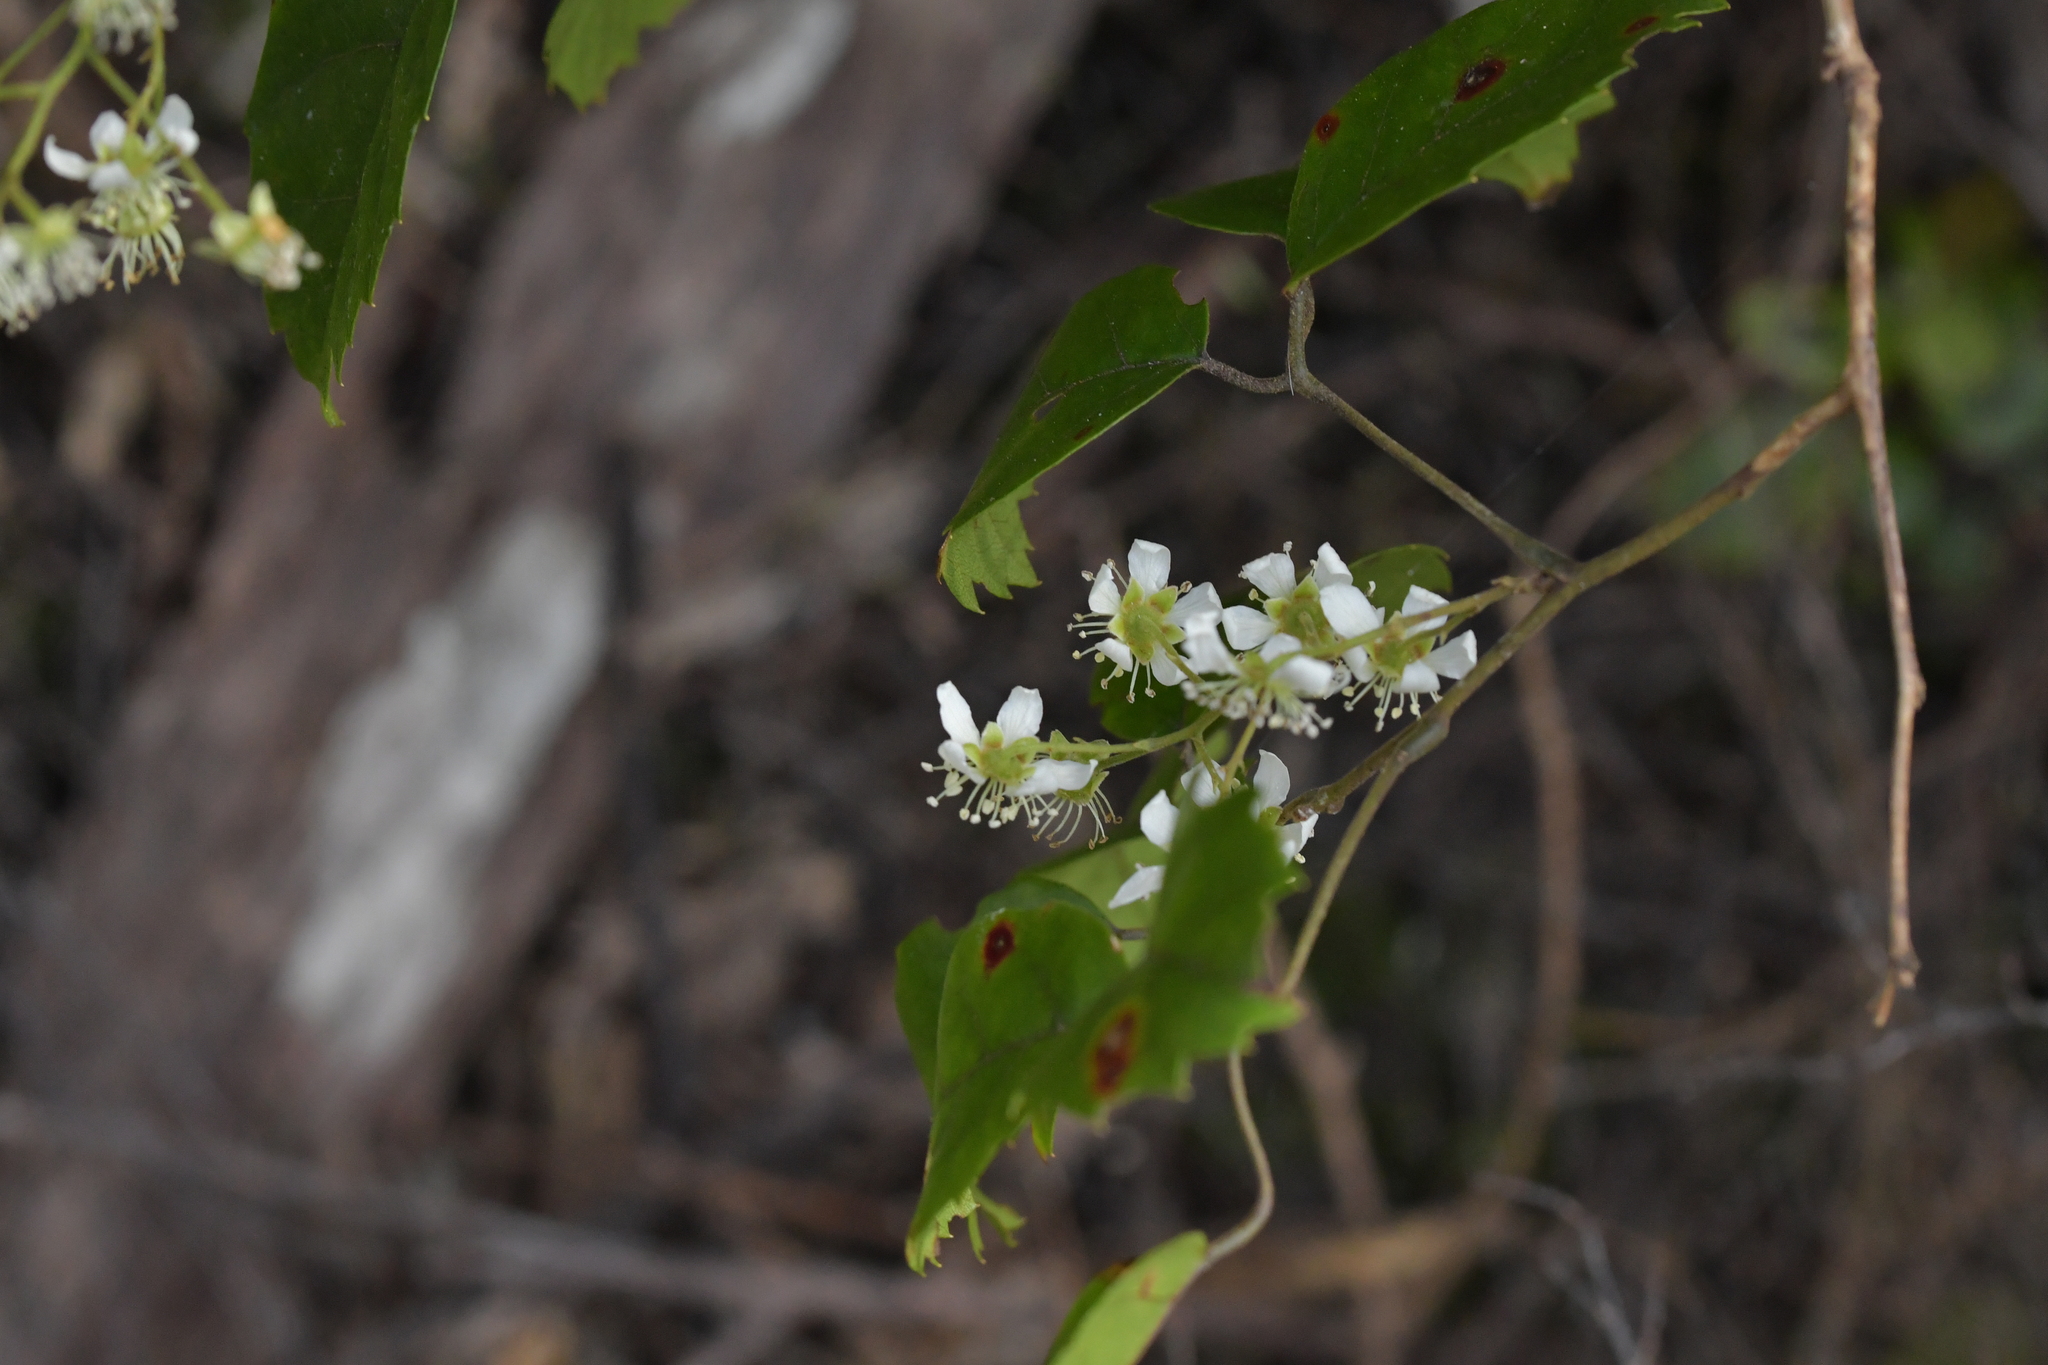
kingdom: Plantae
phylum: Tracheophyta
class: Magnoliopsida
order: Rosales
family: Rosaceae
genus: Rubus
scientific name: Rubus australis
